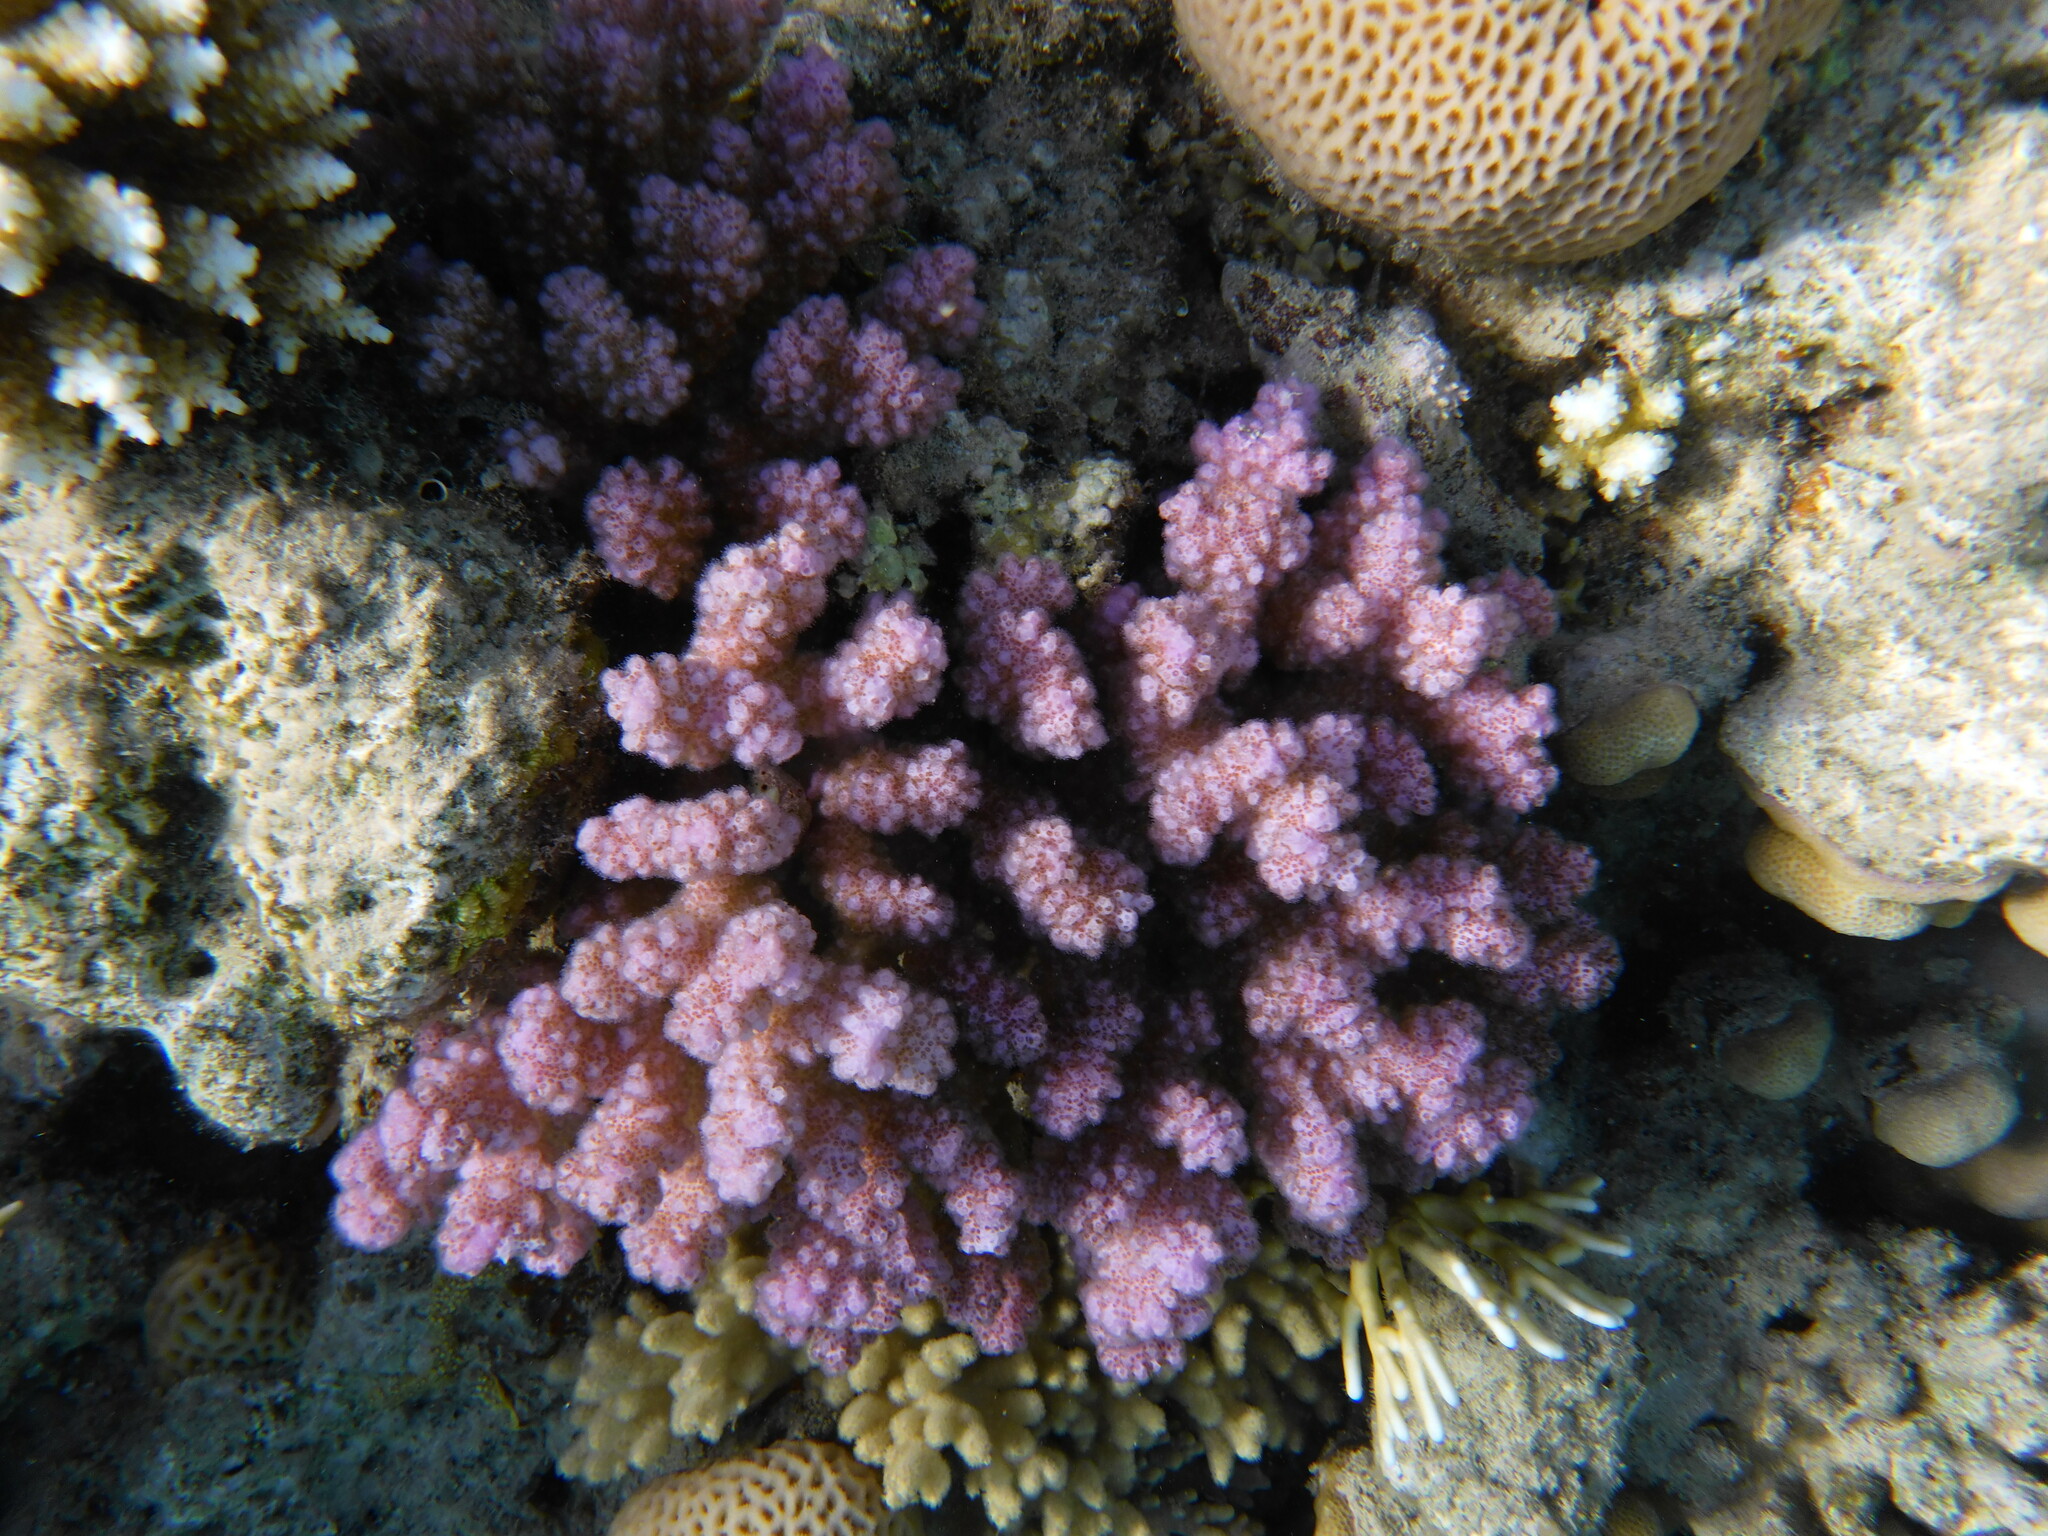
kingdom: Animalia
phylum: Cnidaria
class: Anthozoa
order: Scleractinia
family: Pocilloporidae
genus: Pocillopora
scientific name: Pocillopora verrucosa
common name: Cauliflower coral
